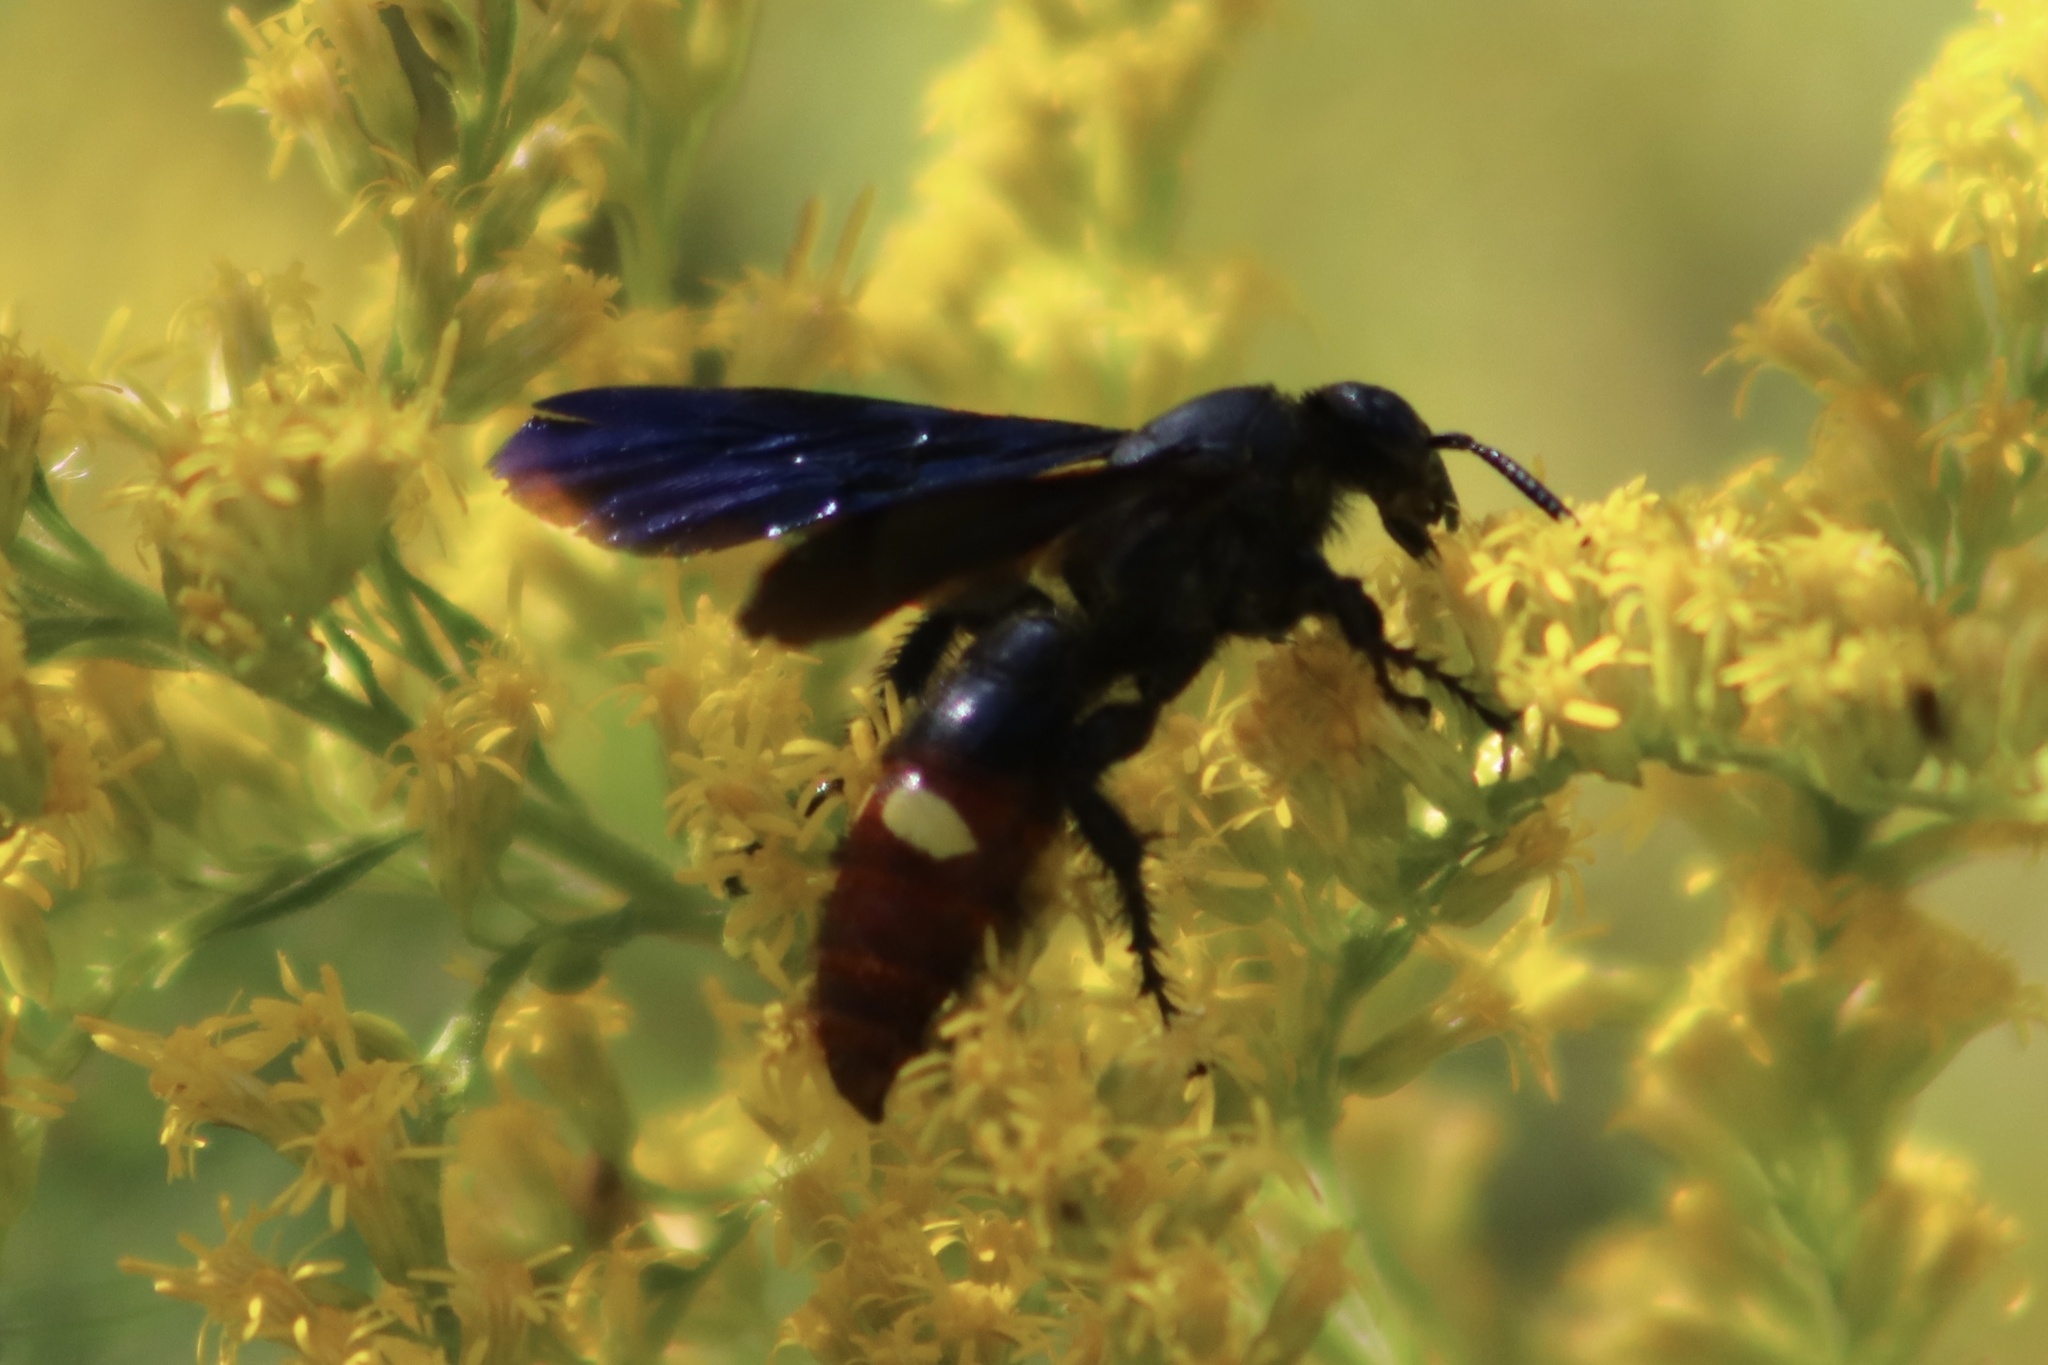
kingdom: Animalia
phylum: Arthropoda
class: Insecta
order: Hymenoptera
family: Scoliidae
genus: Scolia
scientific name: Scolia dubia
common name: Blue-winged scoliid wasp
